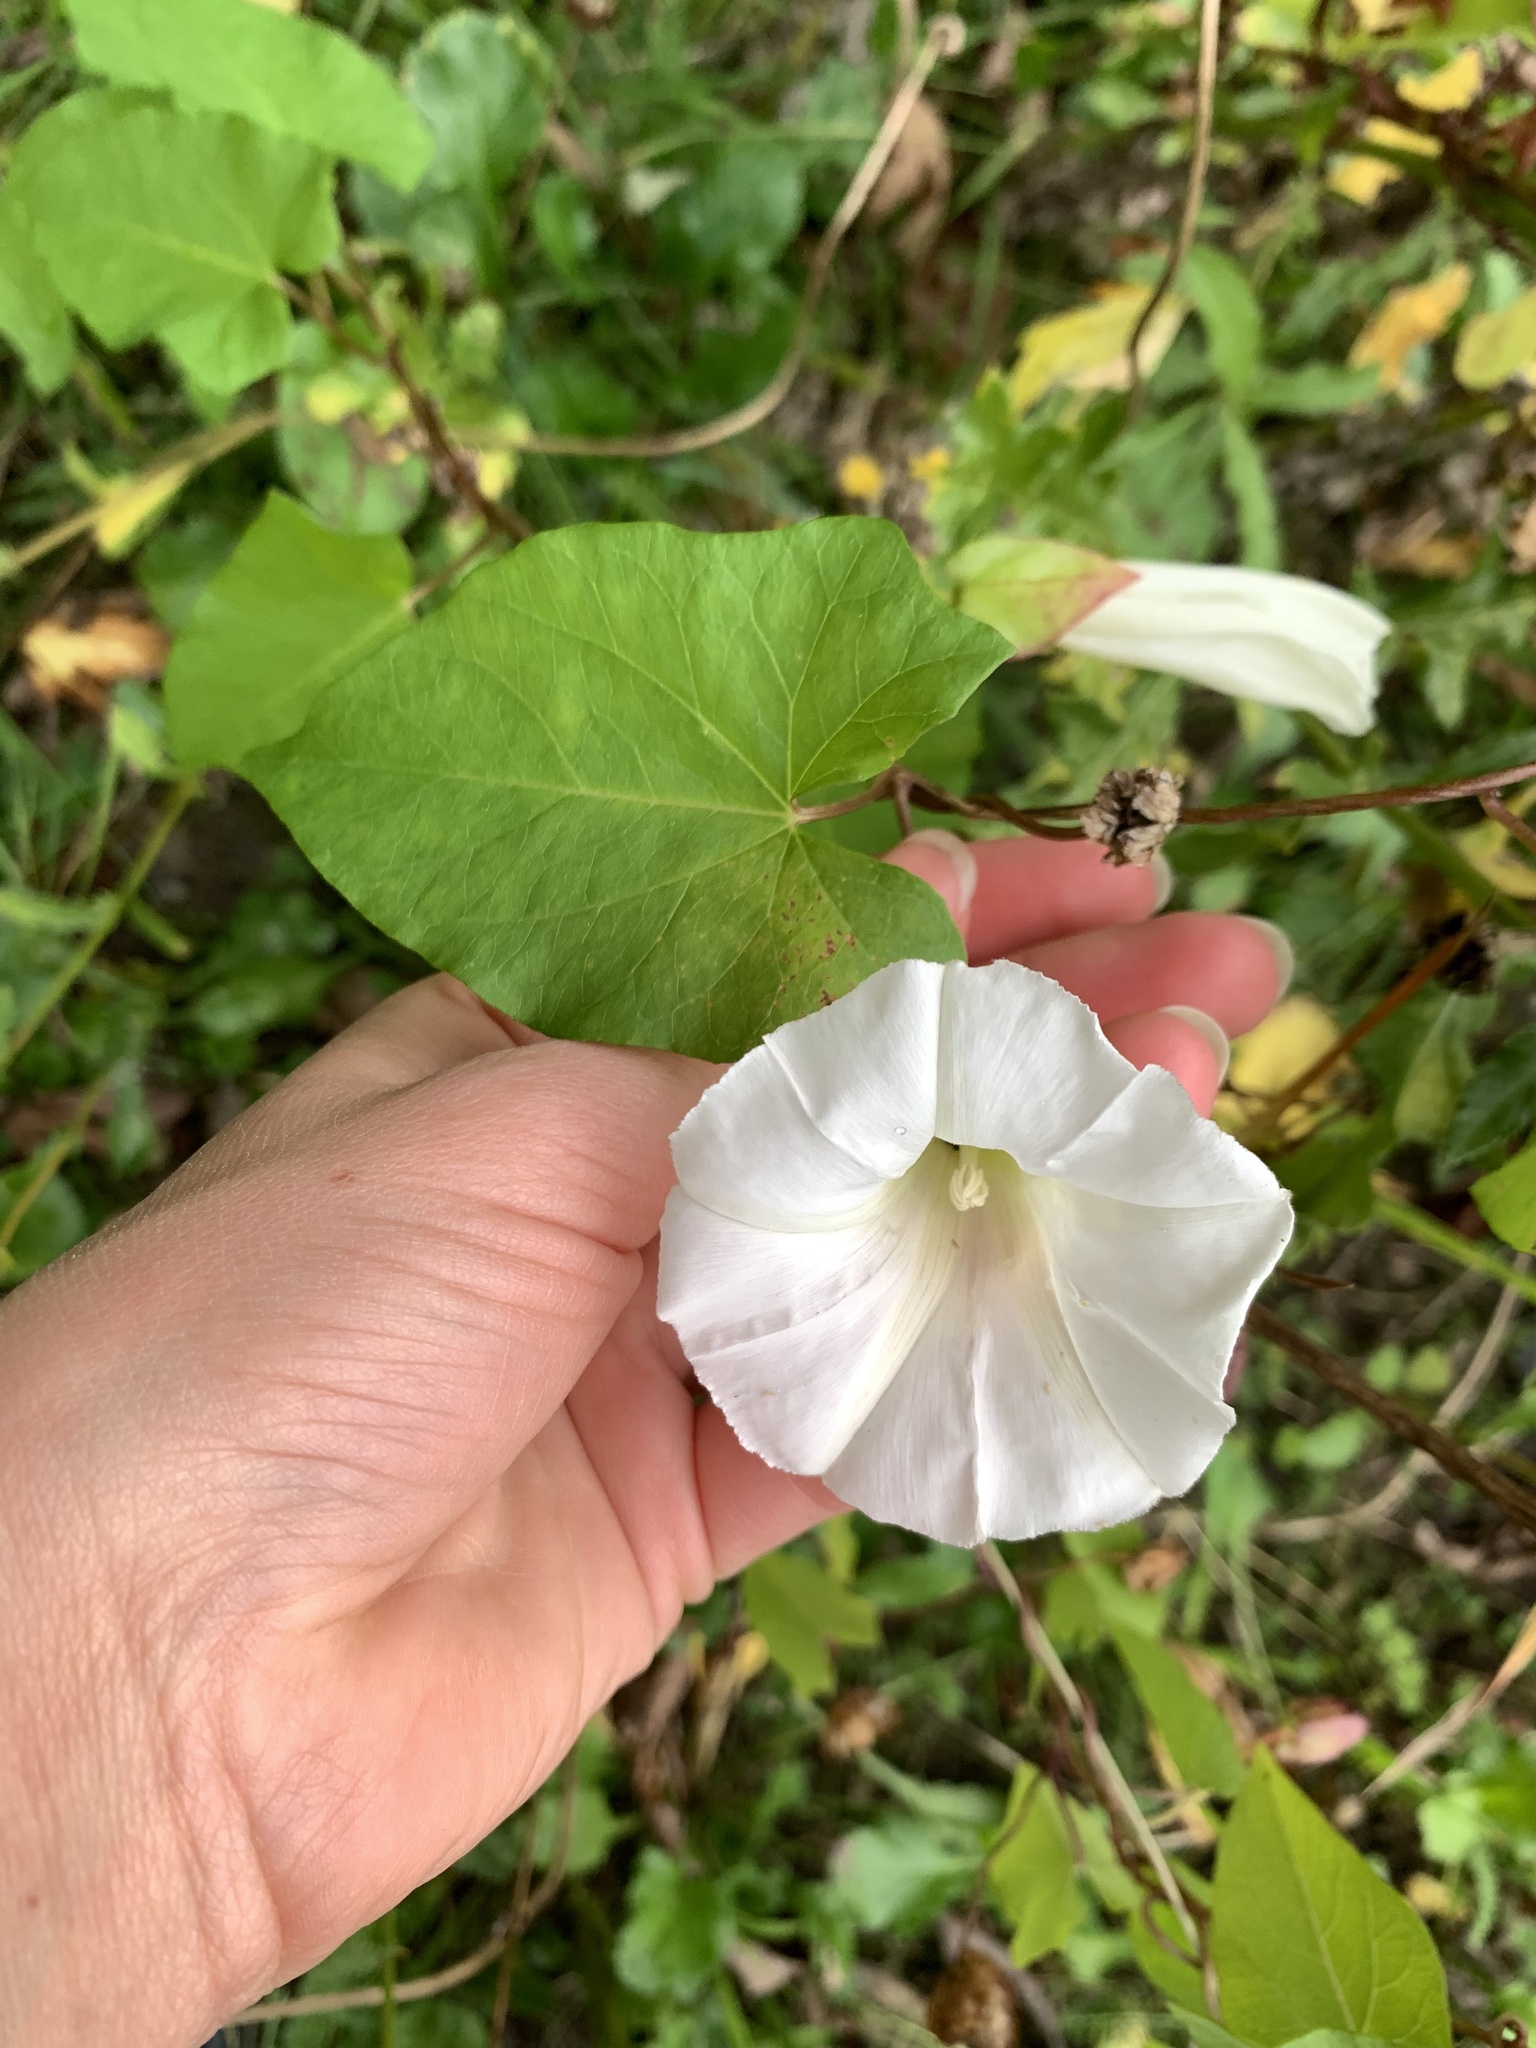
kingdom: Plantae
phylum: Tracheophyta
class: Magnoliopsida
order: Solanales
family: Convolvulaceae
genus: Calystegia
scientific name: Calystegia sepium
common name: Hedge bindweed
